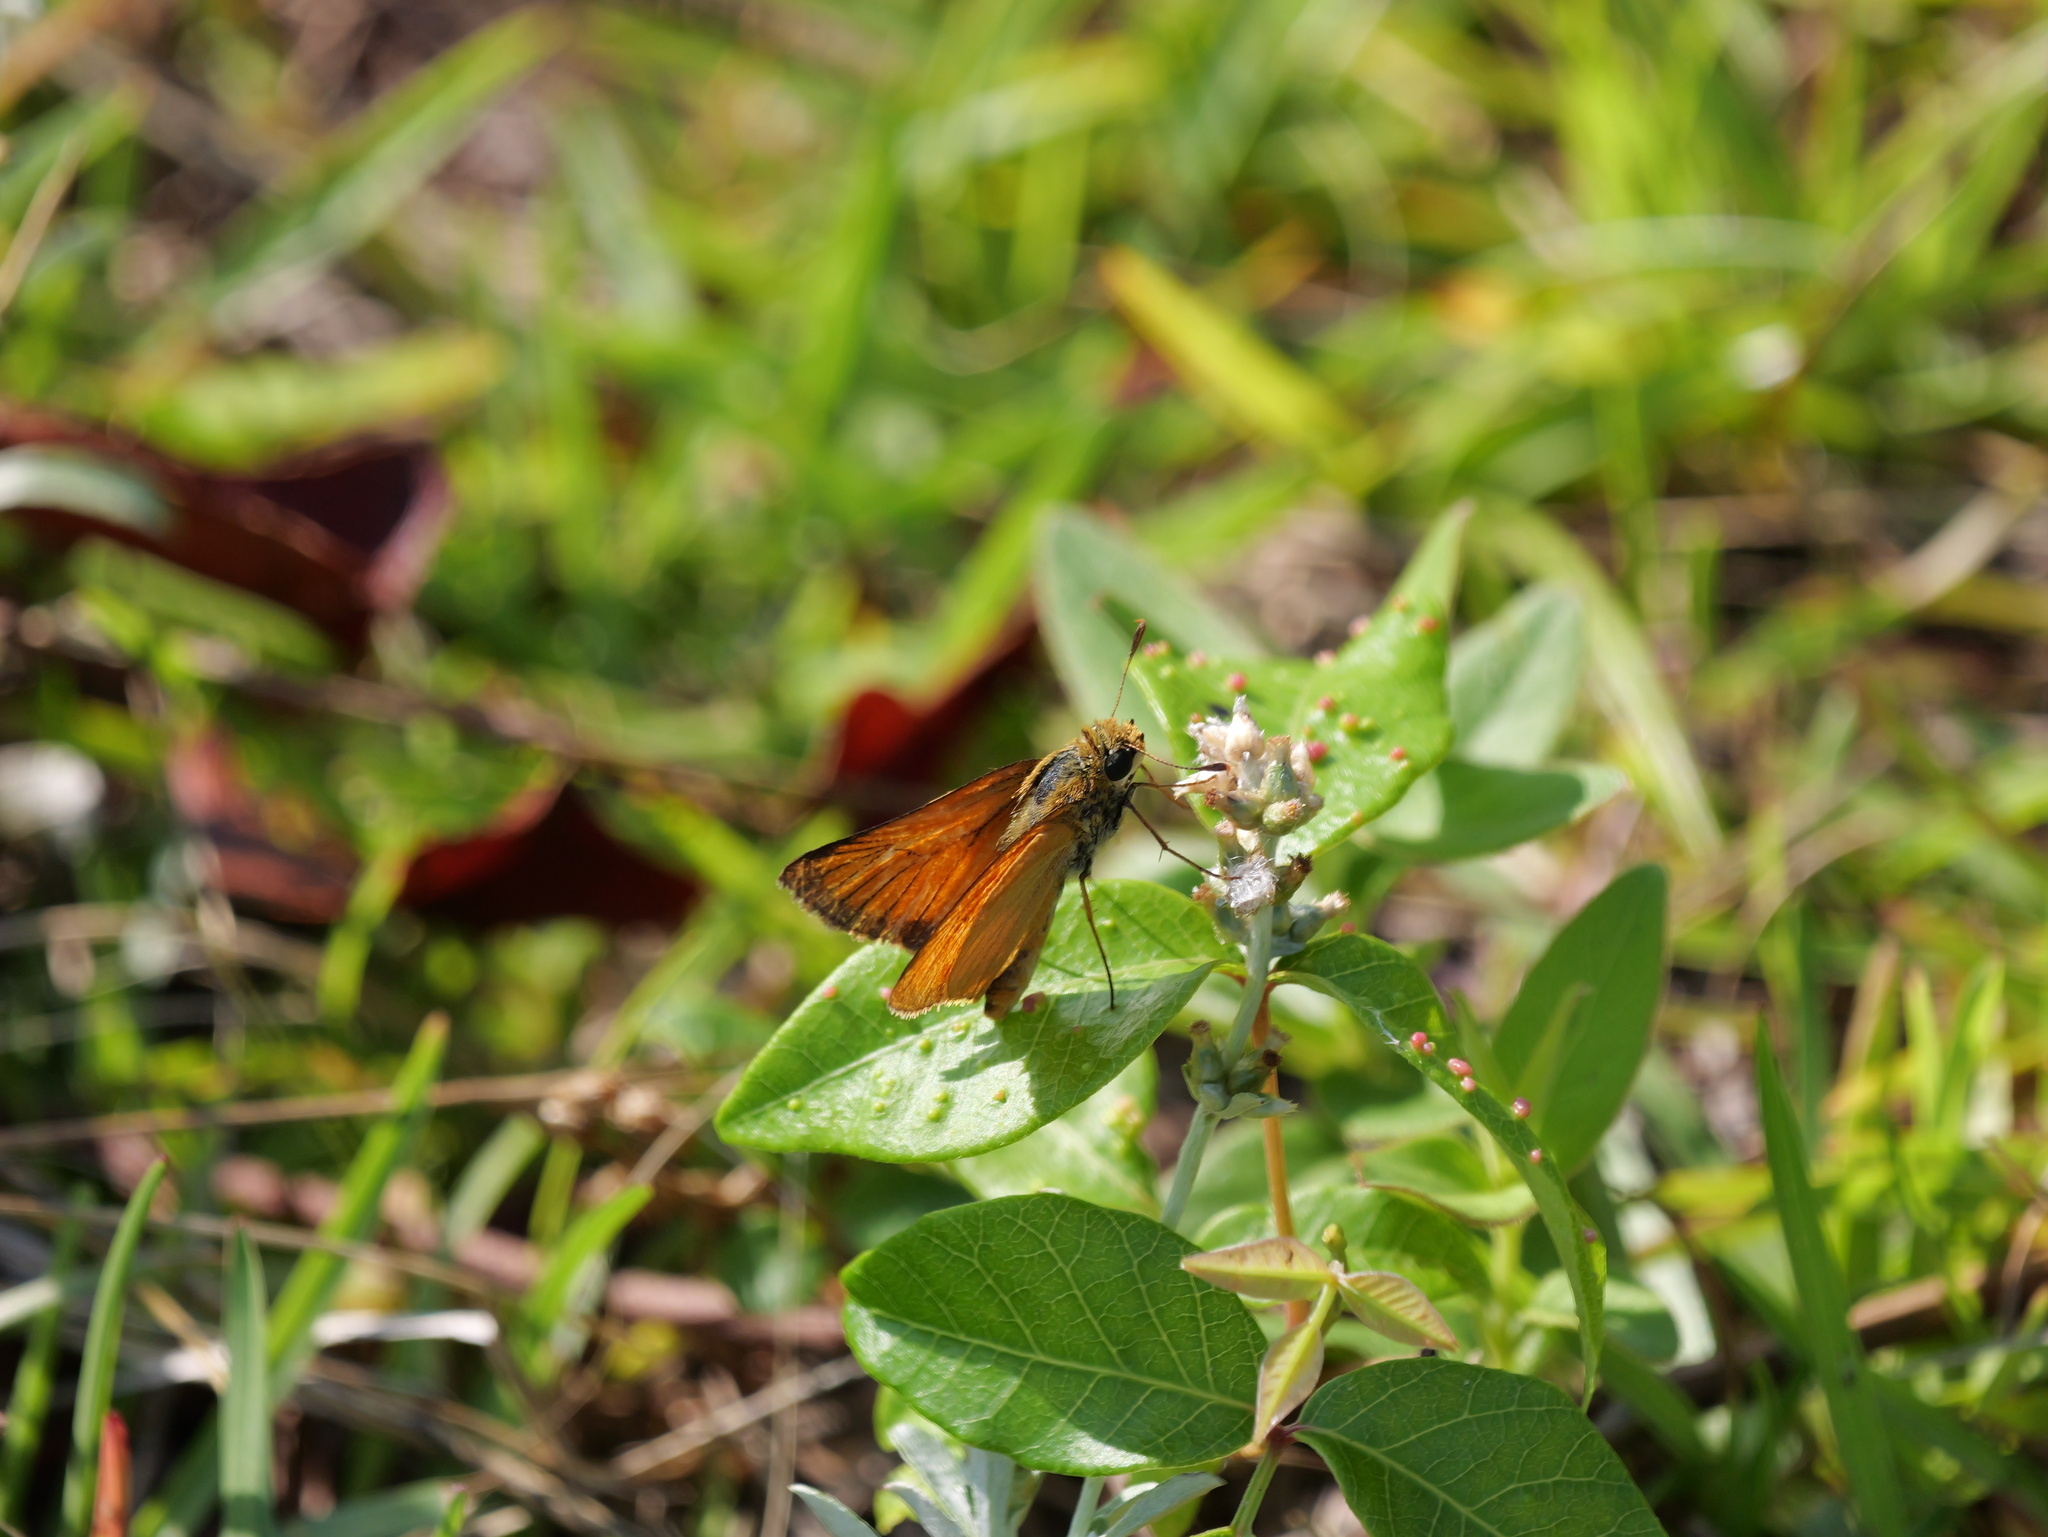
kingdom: Animalia
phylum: Arthropoda
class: Insecta
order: Lepidoptera
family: Hesperiidae
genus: Atrytone
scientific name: Atrytone delaware
